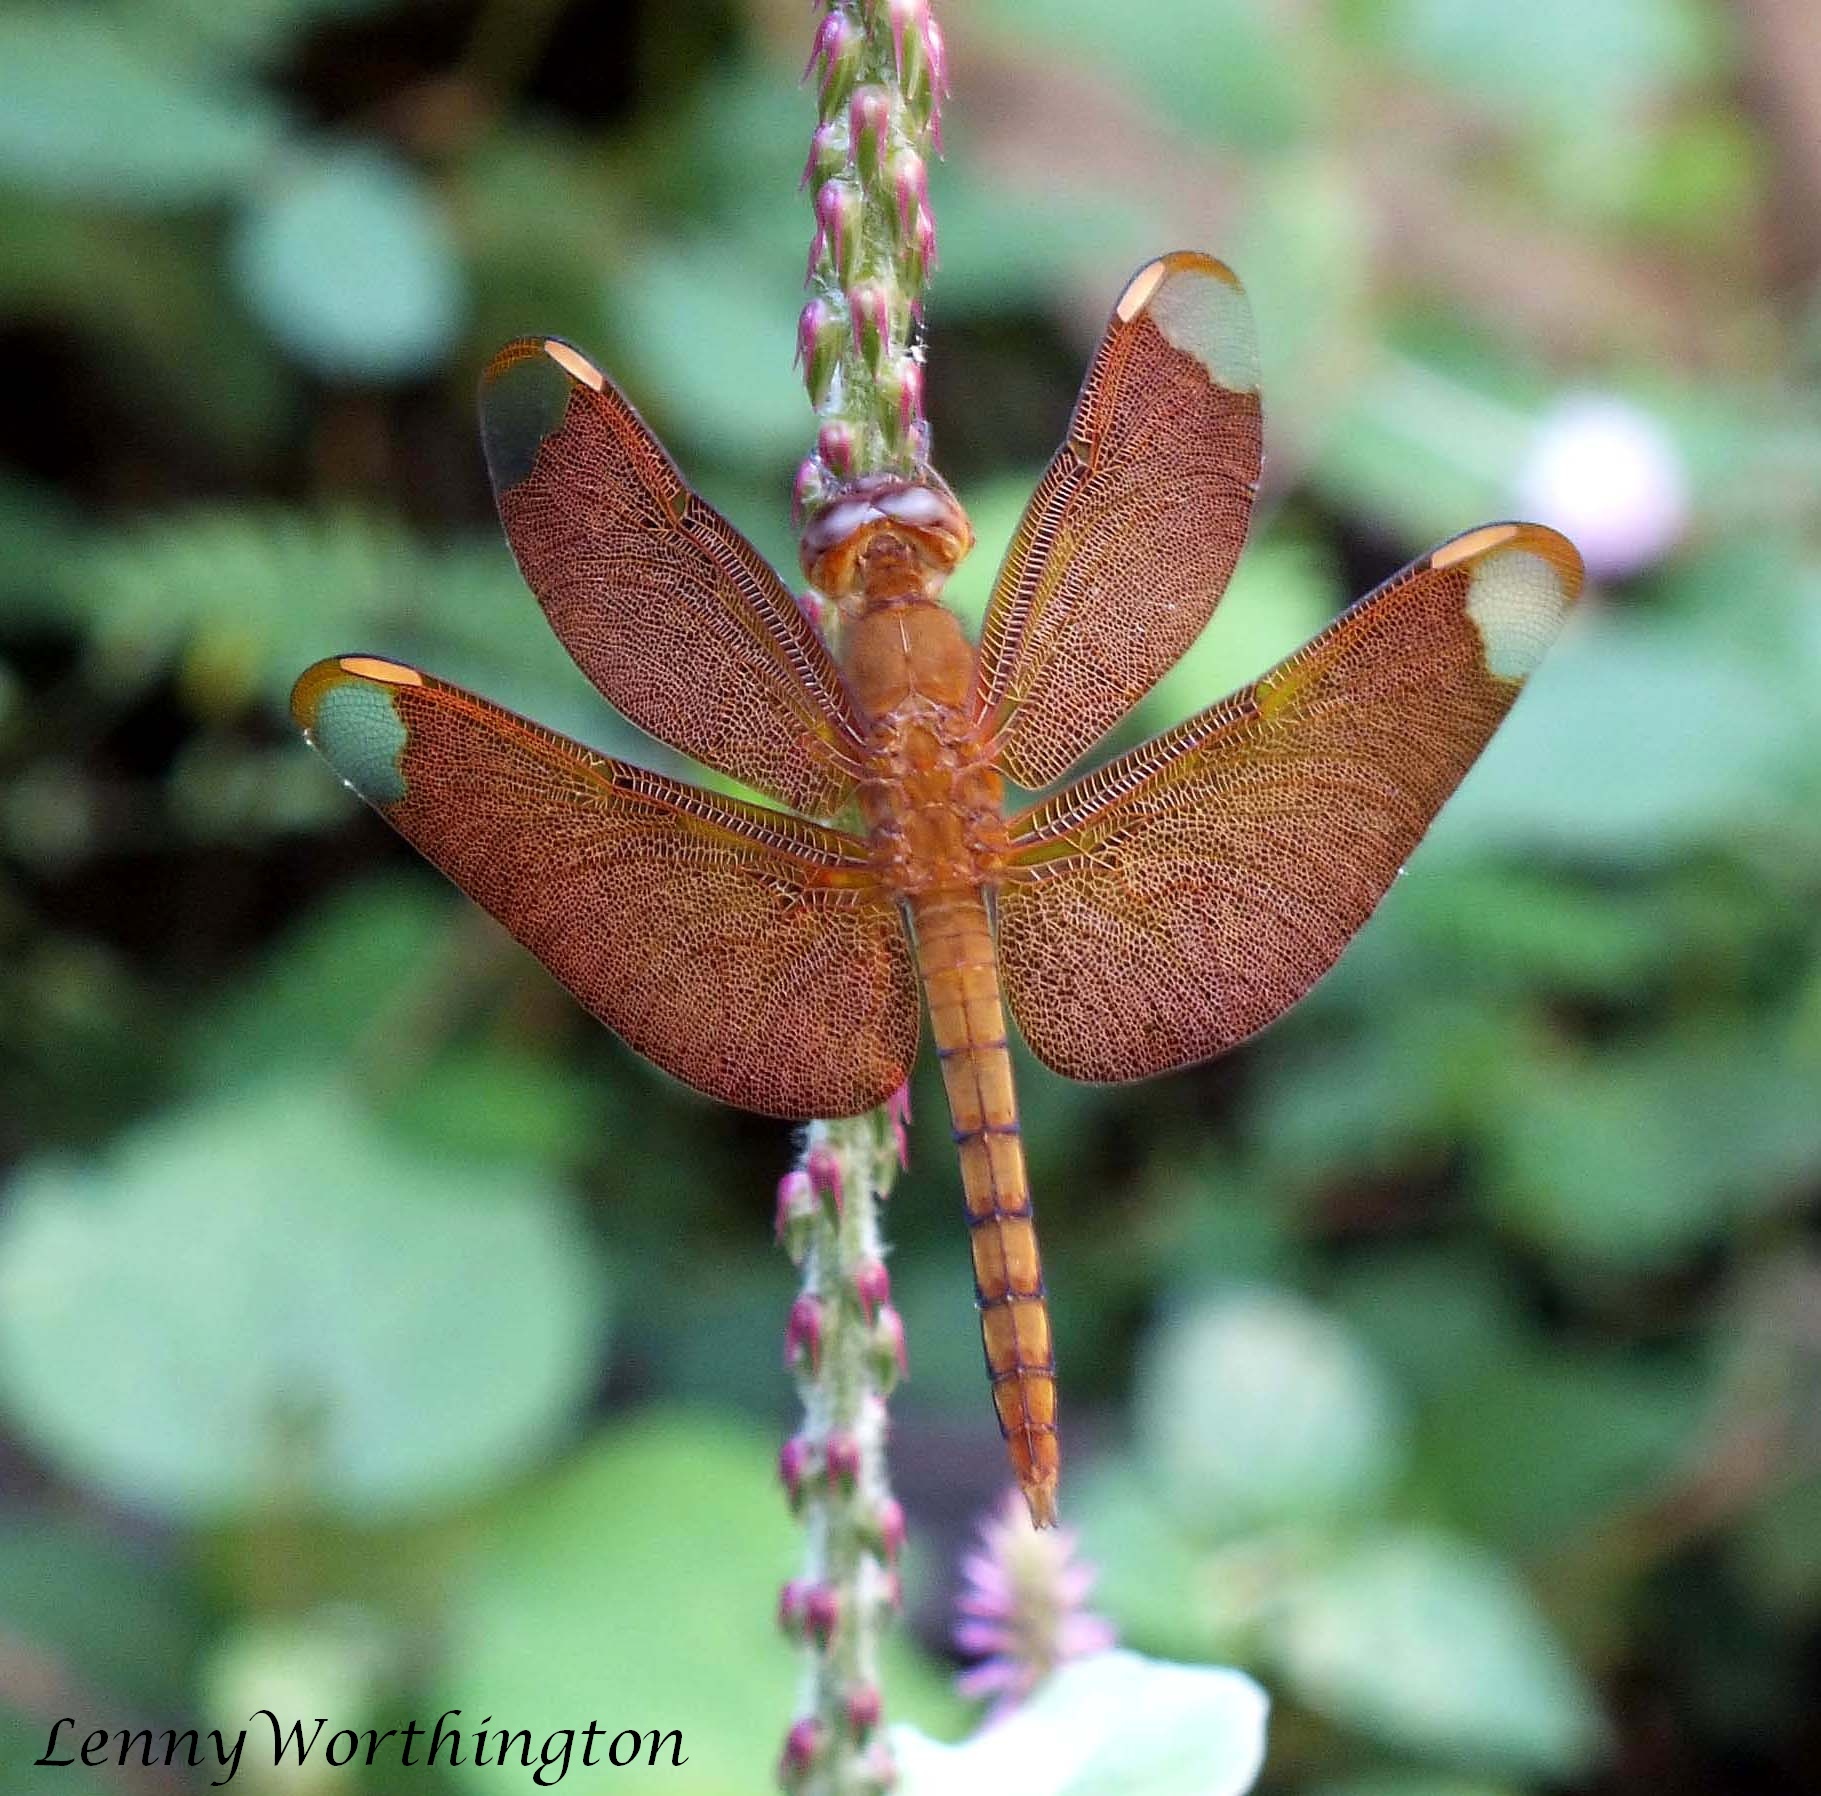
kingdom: Animalia
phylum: Arthropoda
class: Insecta
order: Odonata
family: Libellulidae
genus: Neurothemis
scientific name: Neurothemis fulvia
